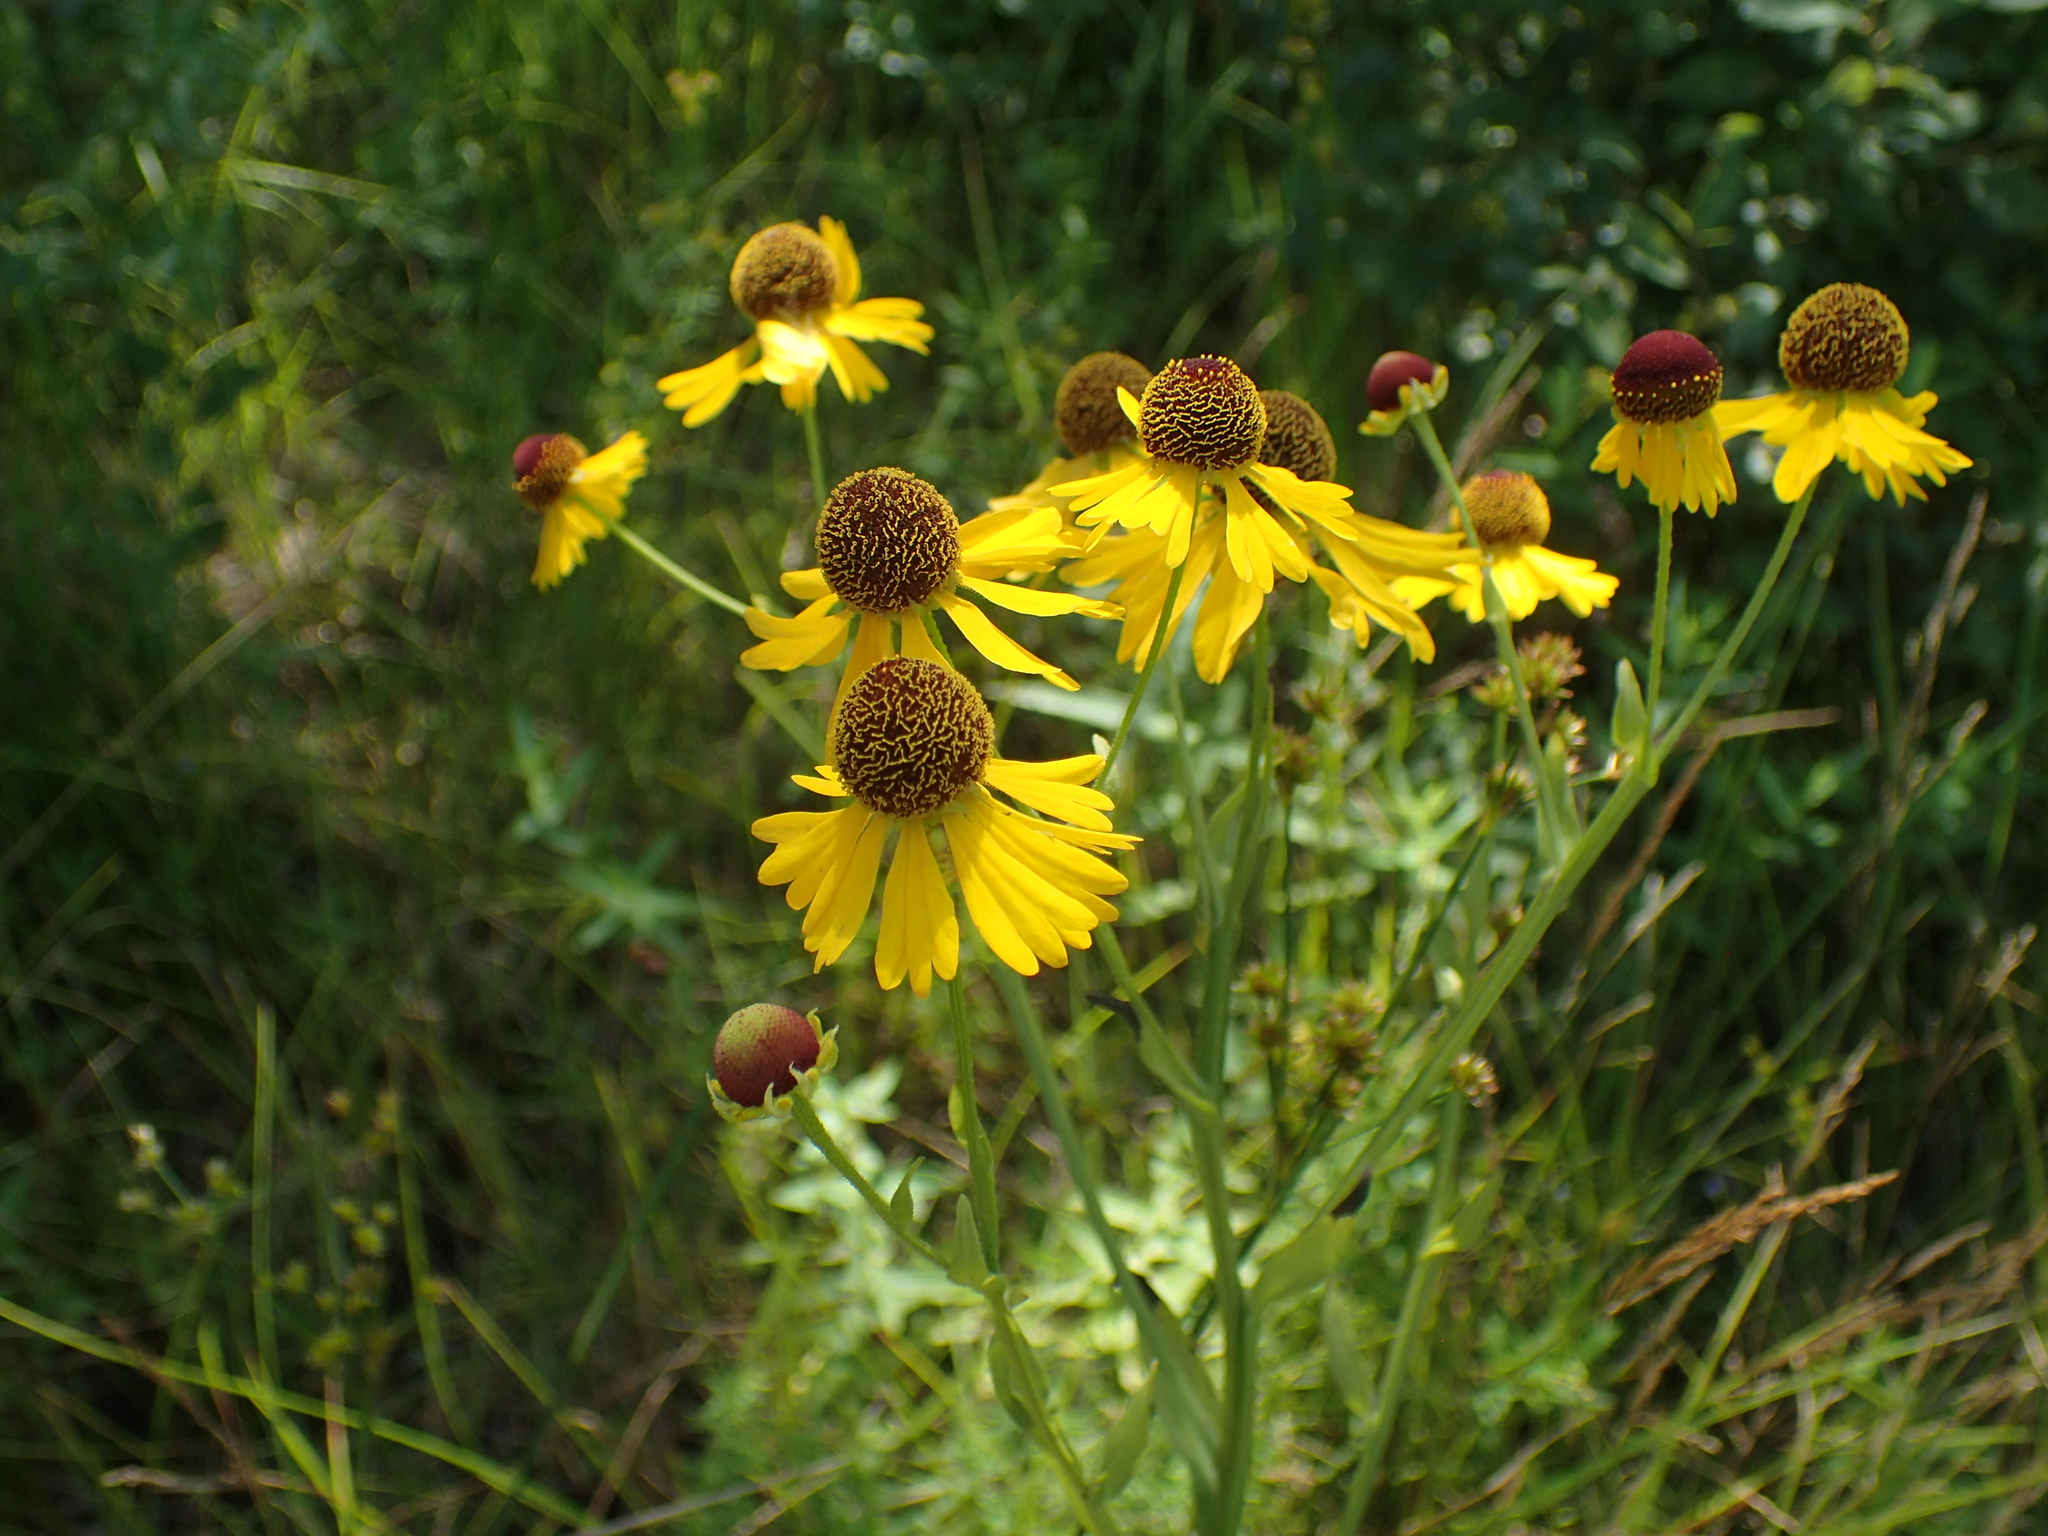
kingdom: Plantae
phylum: Tracheophyta
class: Magnoliopsida
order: Asterales
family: Asteraceae
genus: Helenium
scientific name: Helenium flexuosum
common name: Naked-flowered sneezeweed
